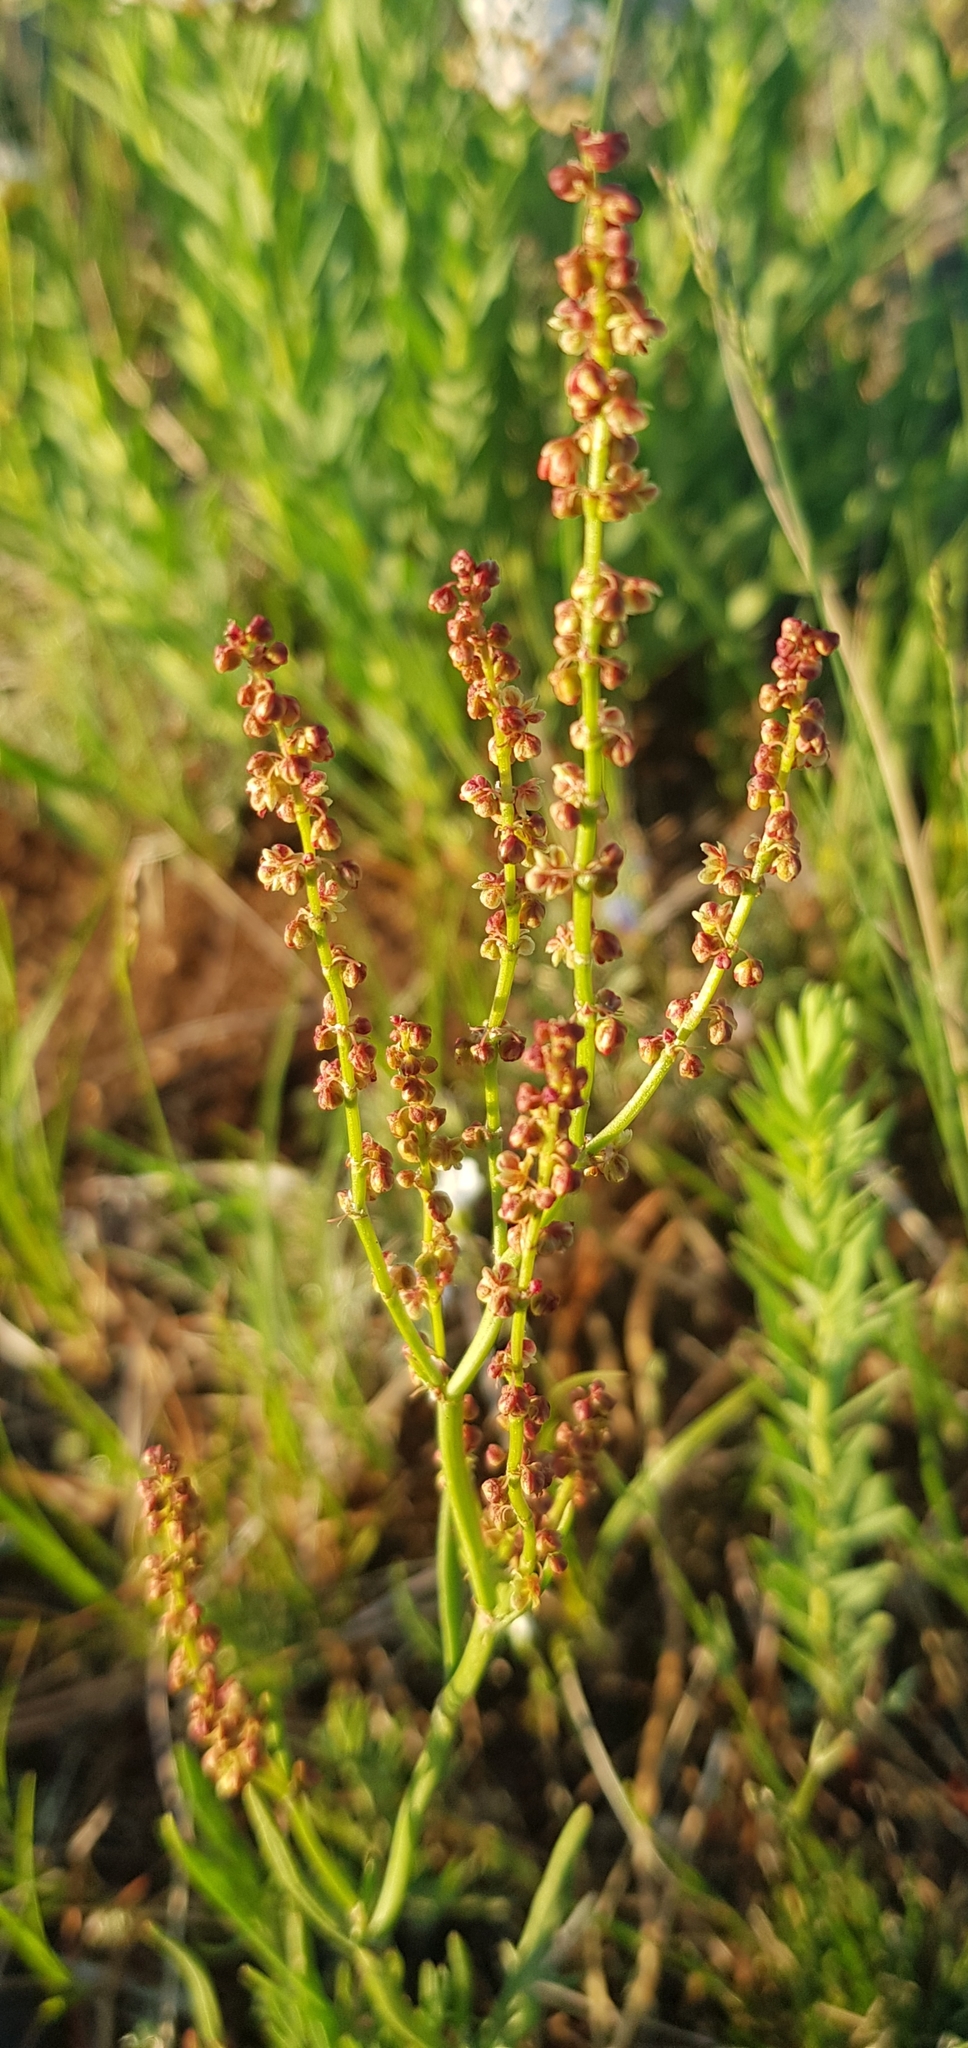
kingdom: Plantae
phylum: Tracheophyta
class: Magnoliopsida
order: Caryophyllales
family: Polygonaceae
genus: Rumex
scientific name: Rumex acetosella
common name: Common sheep sorrel
